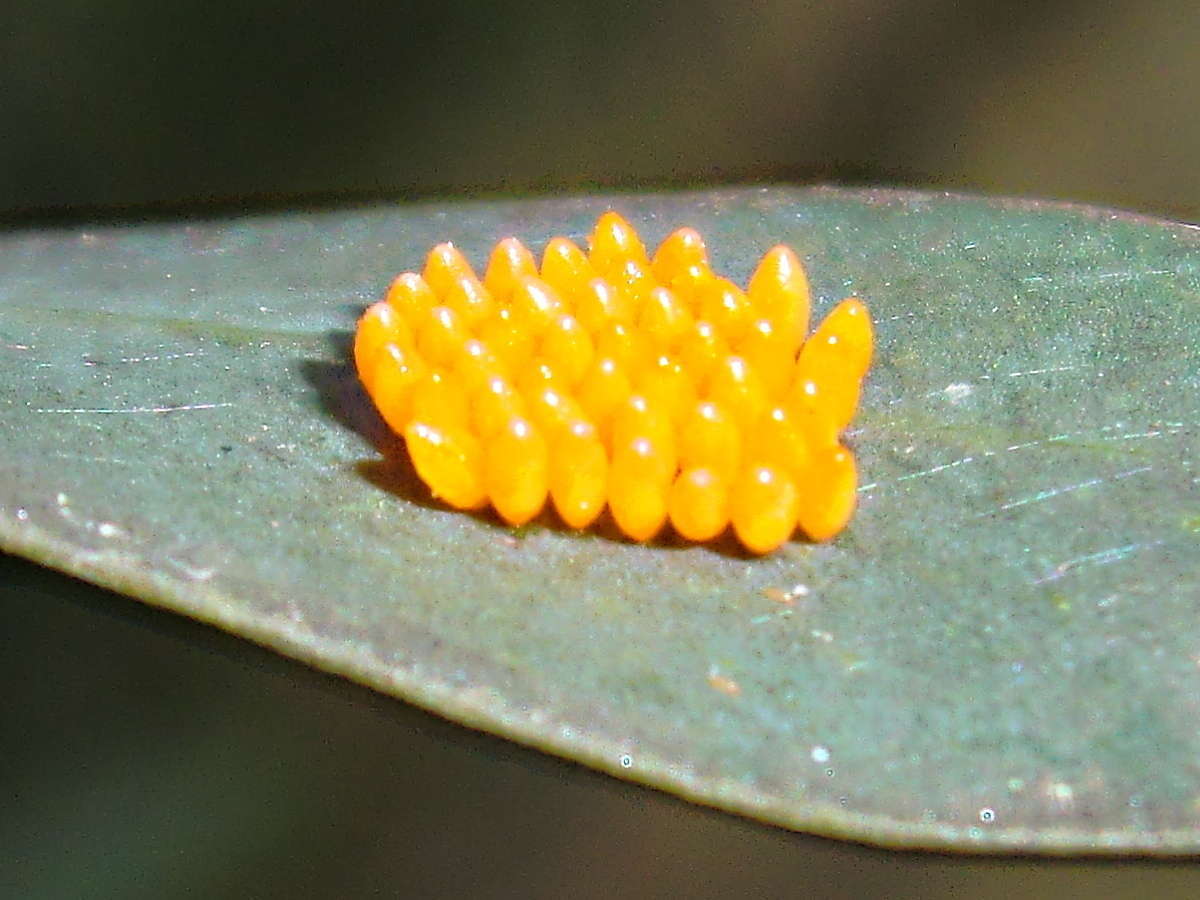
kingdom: Animalia
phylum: Arthropoda
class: Insecta
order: Coleoptera
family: Coccinellidae
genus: Harmonia
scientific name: Harmonia conformis
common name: Common spotted ladybird beetle
